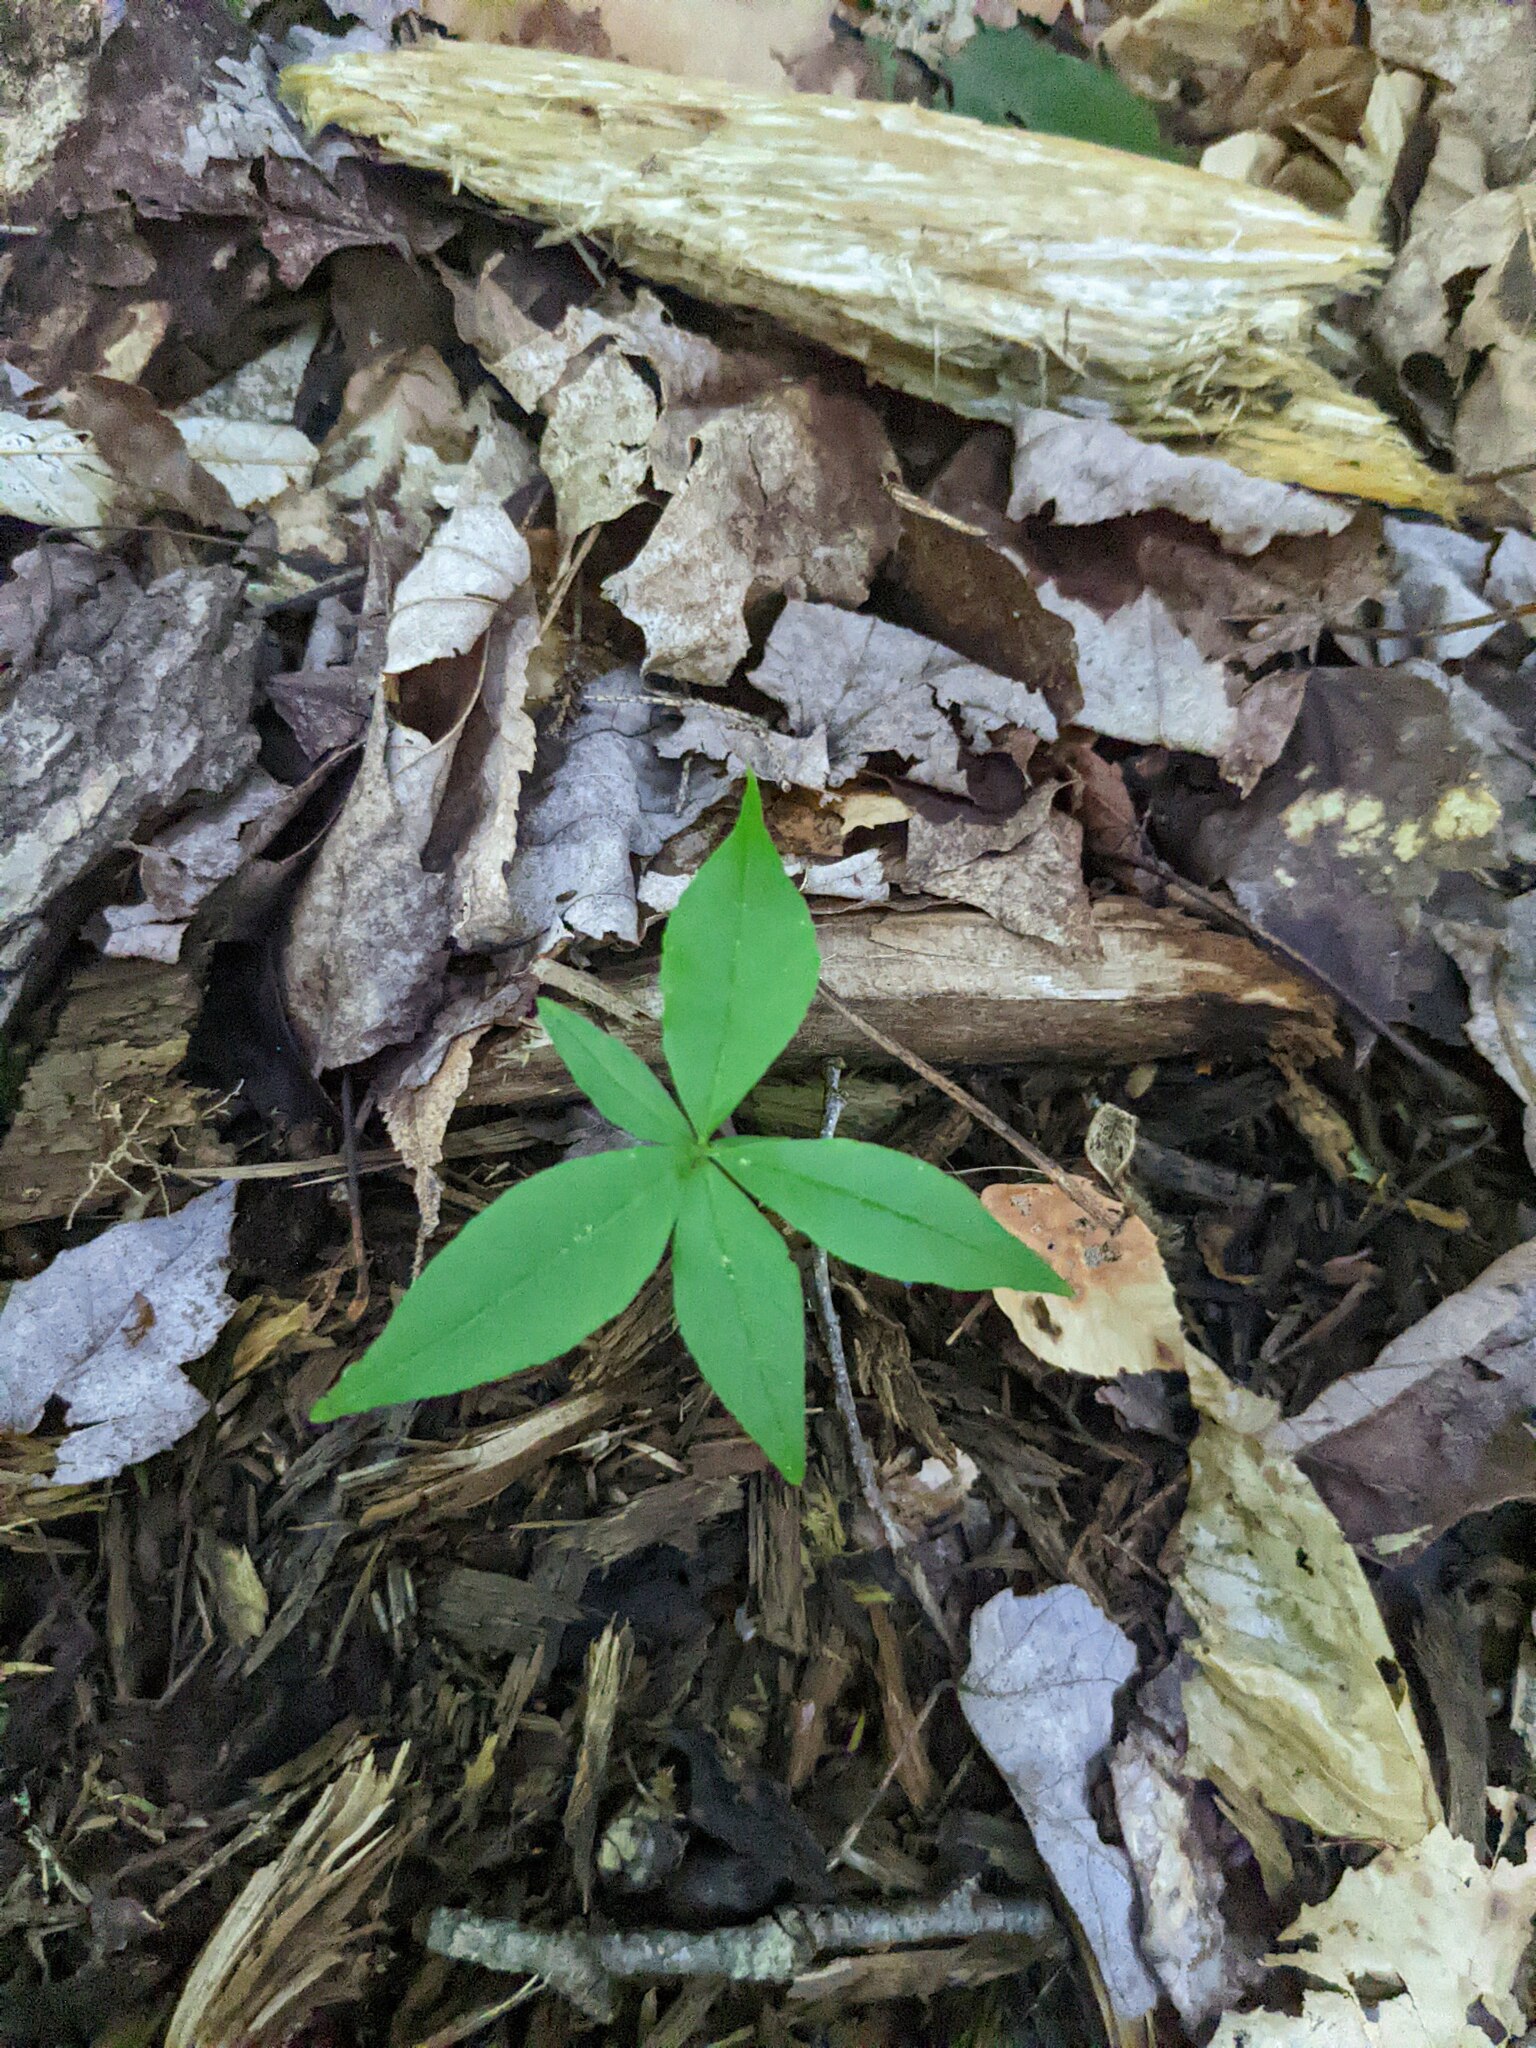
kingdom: Plantae
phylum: Tracheophyta
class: Magnoliopsida
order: Ericales
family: Primulaceae
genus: Lysimachia
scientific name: Lysimachia borealis
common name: American starflower
